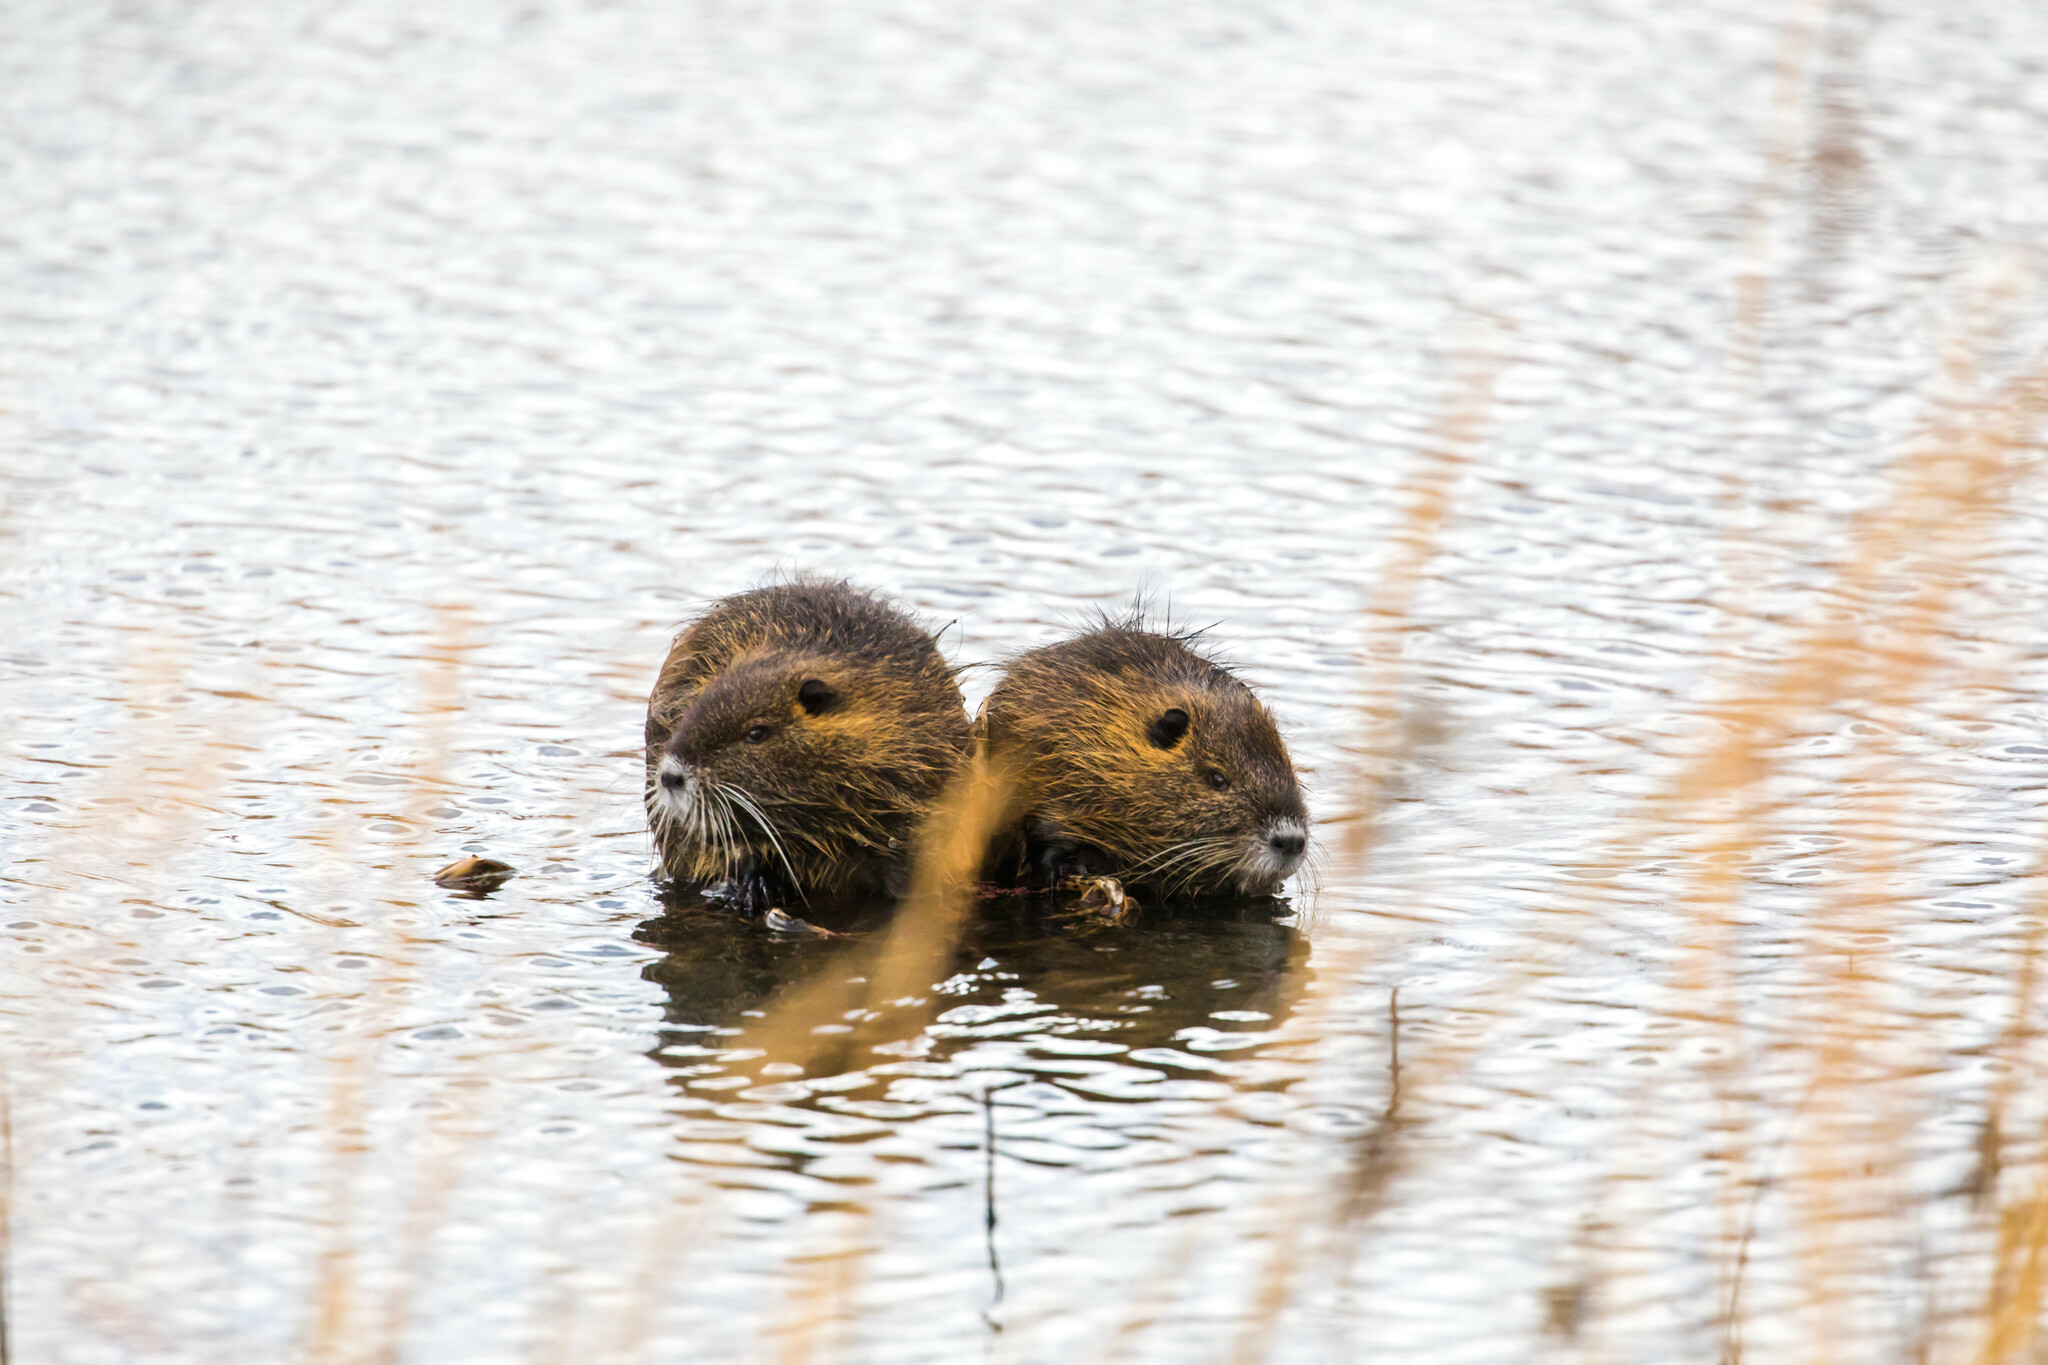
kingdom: Animalia
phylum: Chordata
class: Mammalia
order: Rodentia
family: Myocastoridae
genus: Myocastor
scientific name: Myocastor coypus
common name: Coypu
